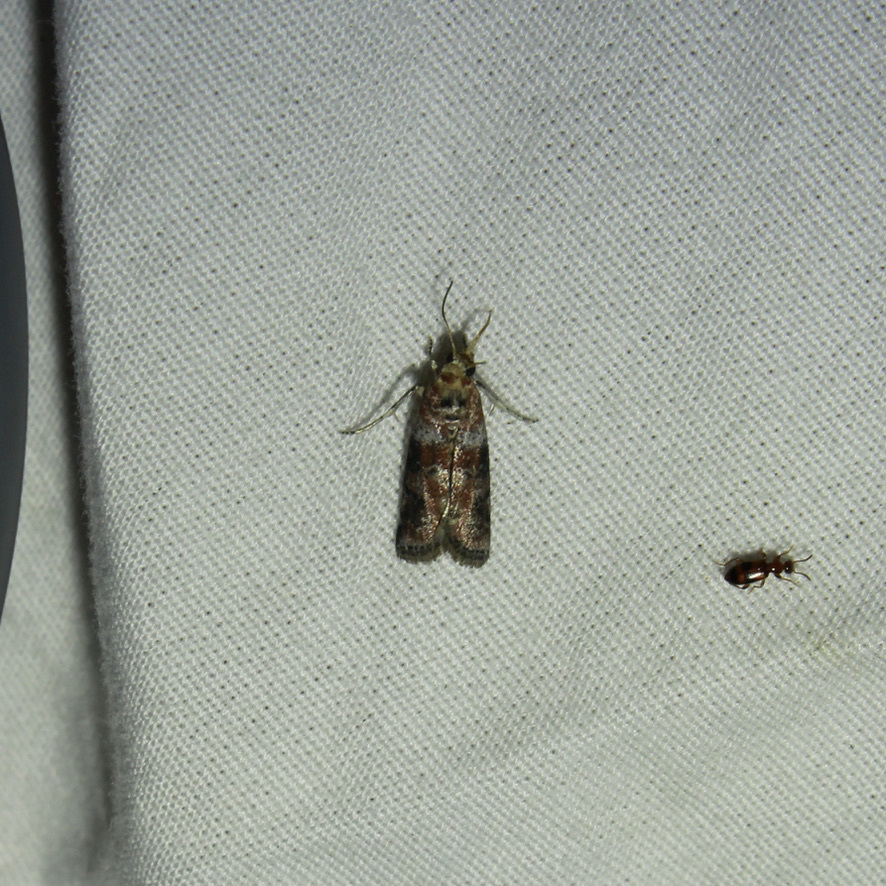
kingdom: Animalia
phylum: Arthropoda
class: Insecta
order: Lepidoptera
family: Pyralidae
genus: Sciota
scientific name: Sciota
